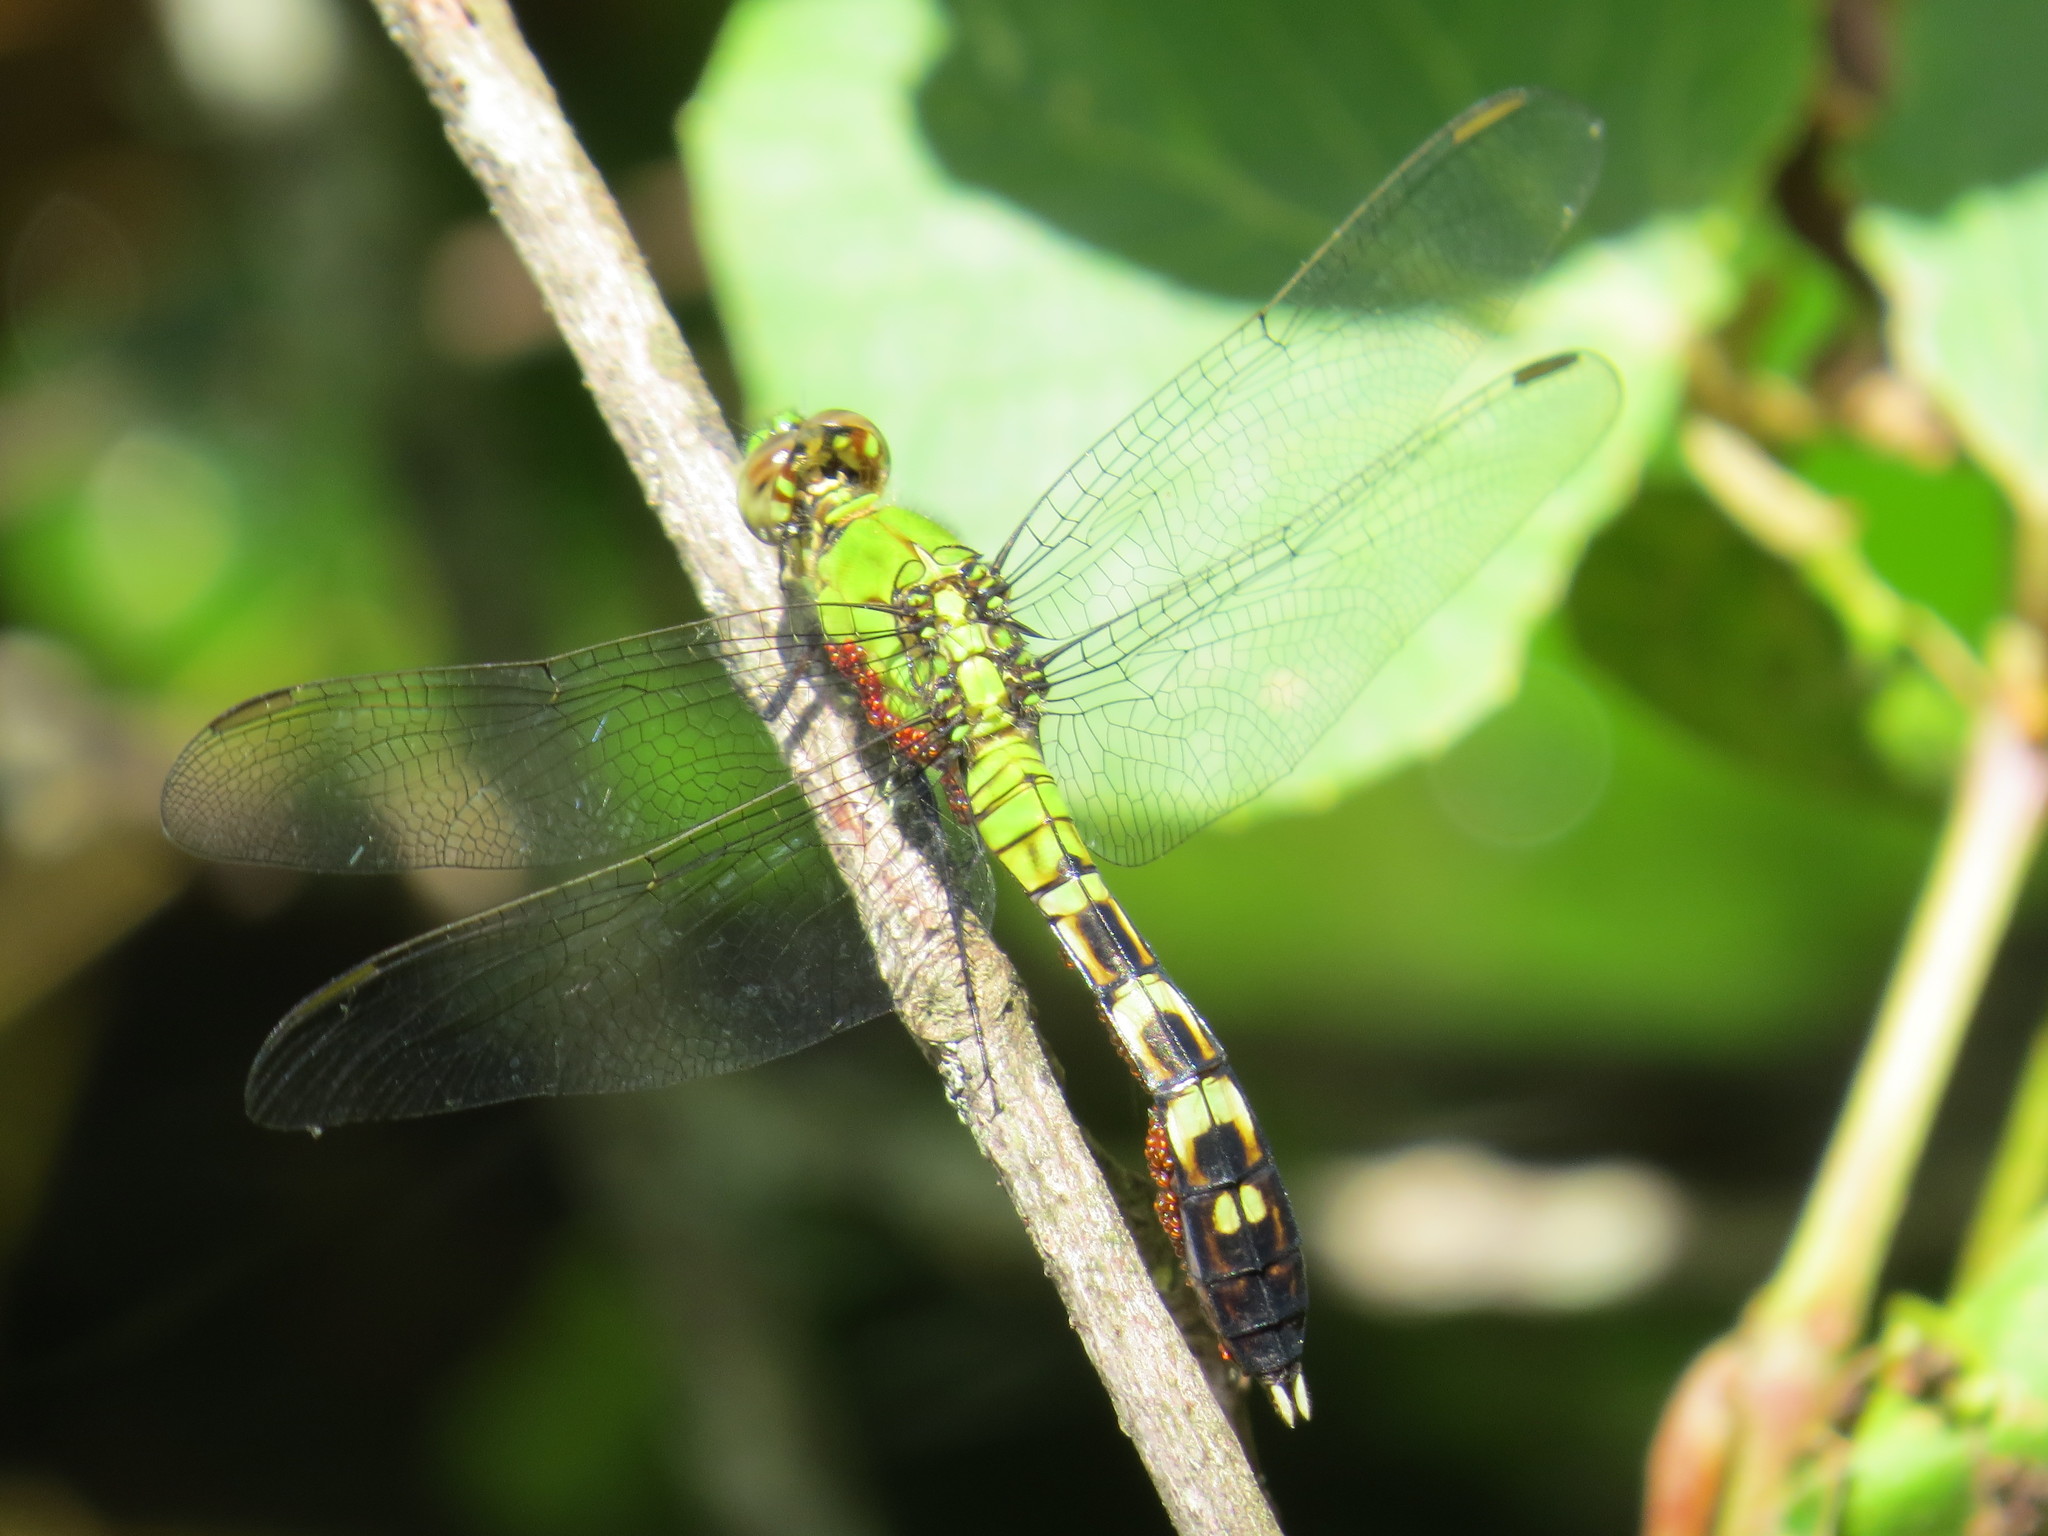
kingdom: Animalia
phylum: Arthropoda
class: Insecta
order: Odonata
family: Libellulidae
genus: Erythemis
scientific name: Erythemis simplicicollis
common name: Eastern pondhawk
